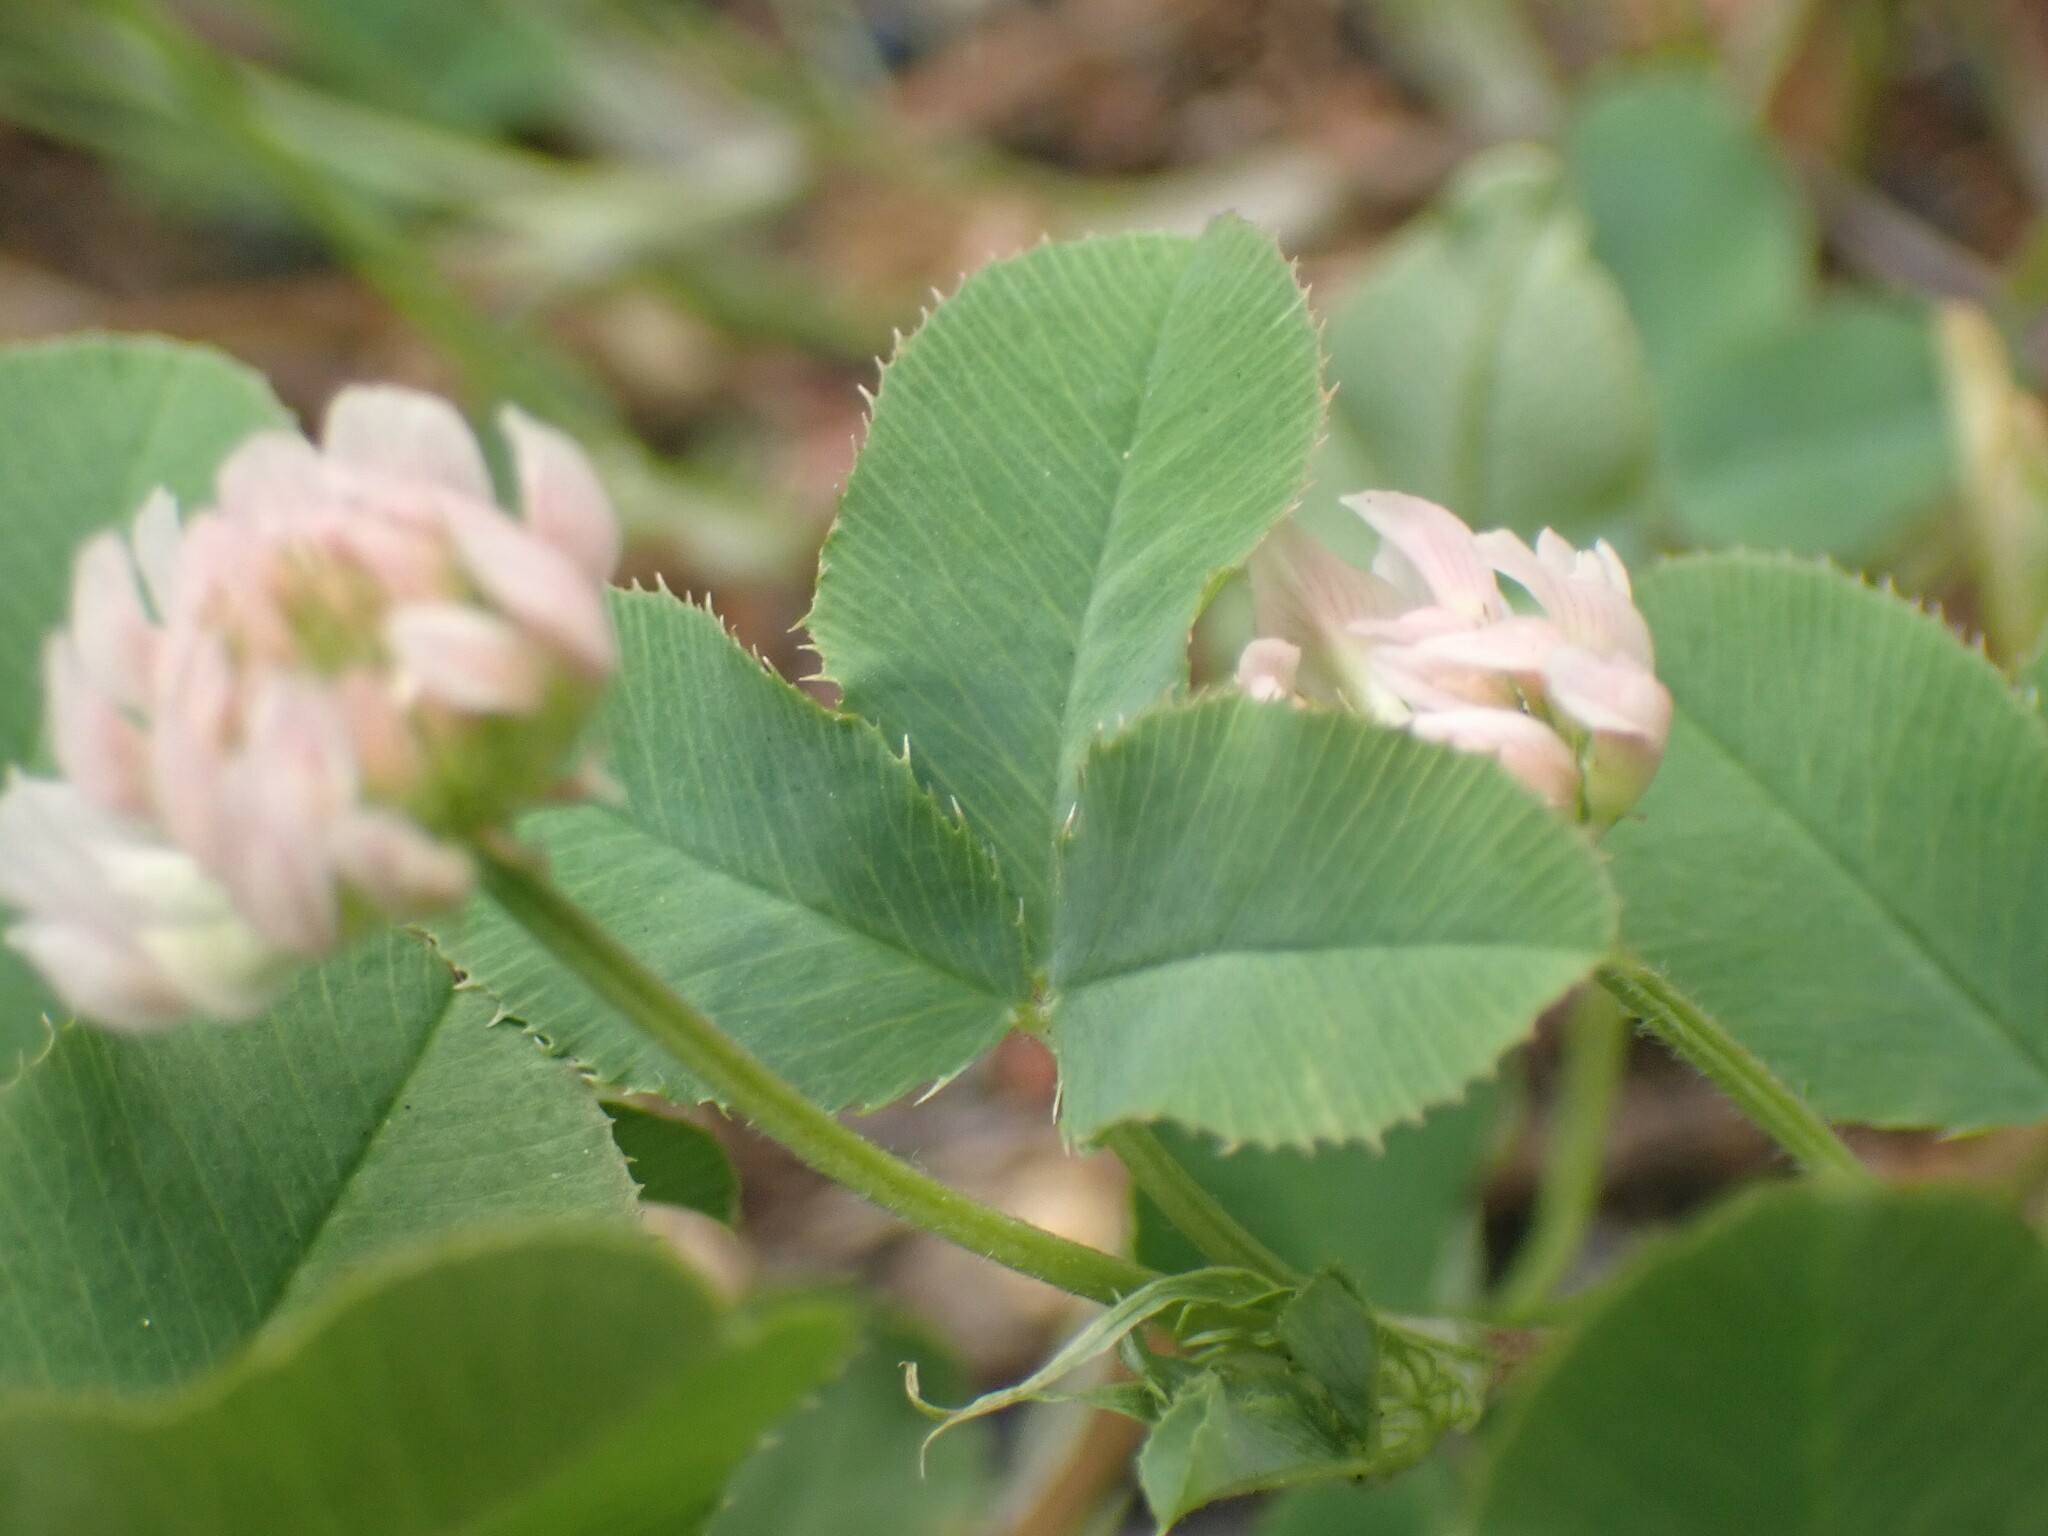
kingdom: Plantae
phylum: Tracheophyta
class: Magnoliopsida
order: Fabales
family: Fabaceae
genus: Trifolium
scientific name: Trifolium hybridum
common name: Alsike clover
